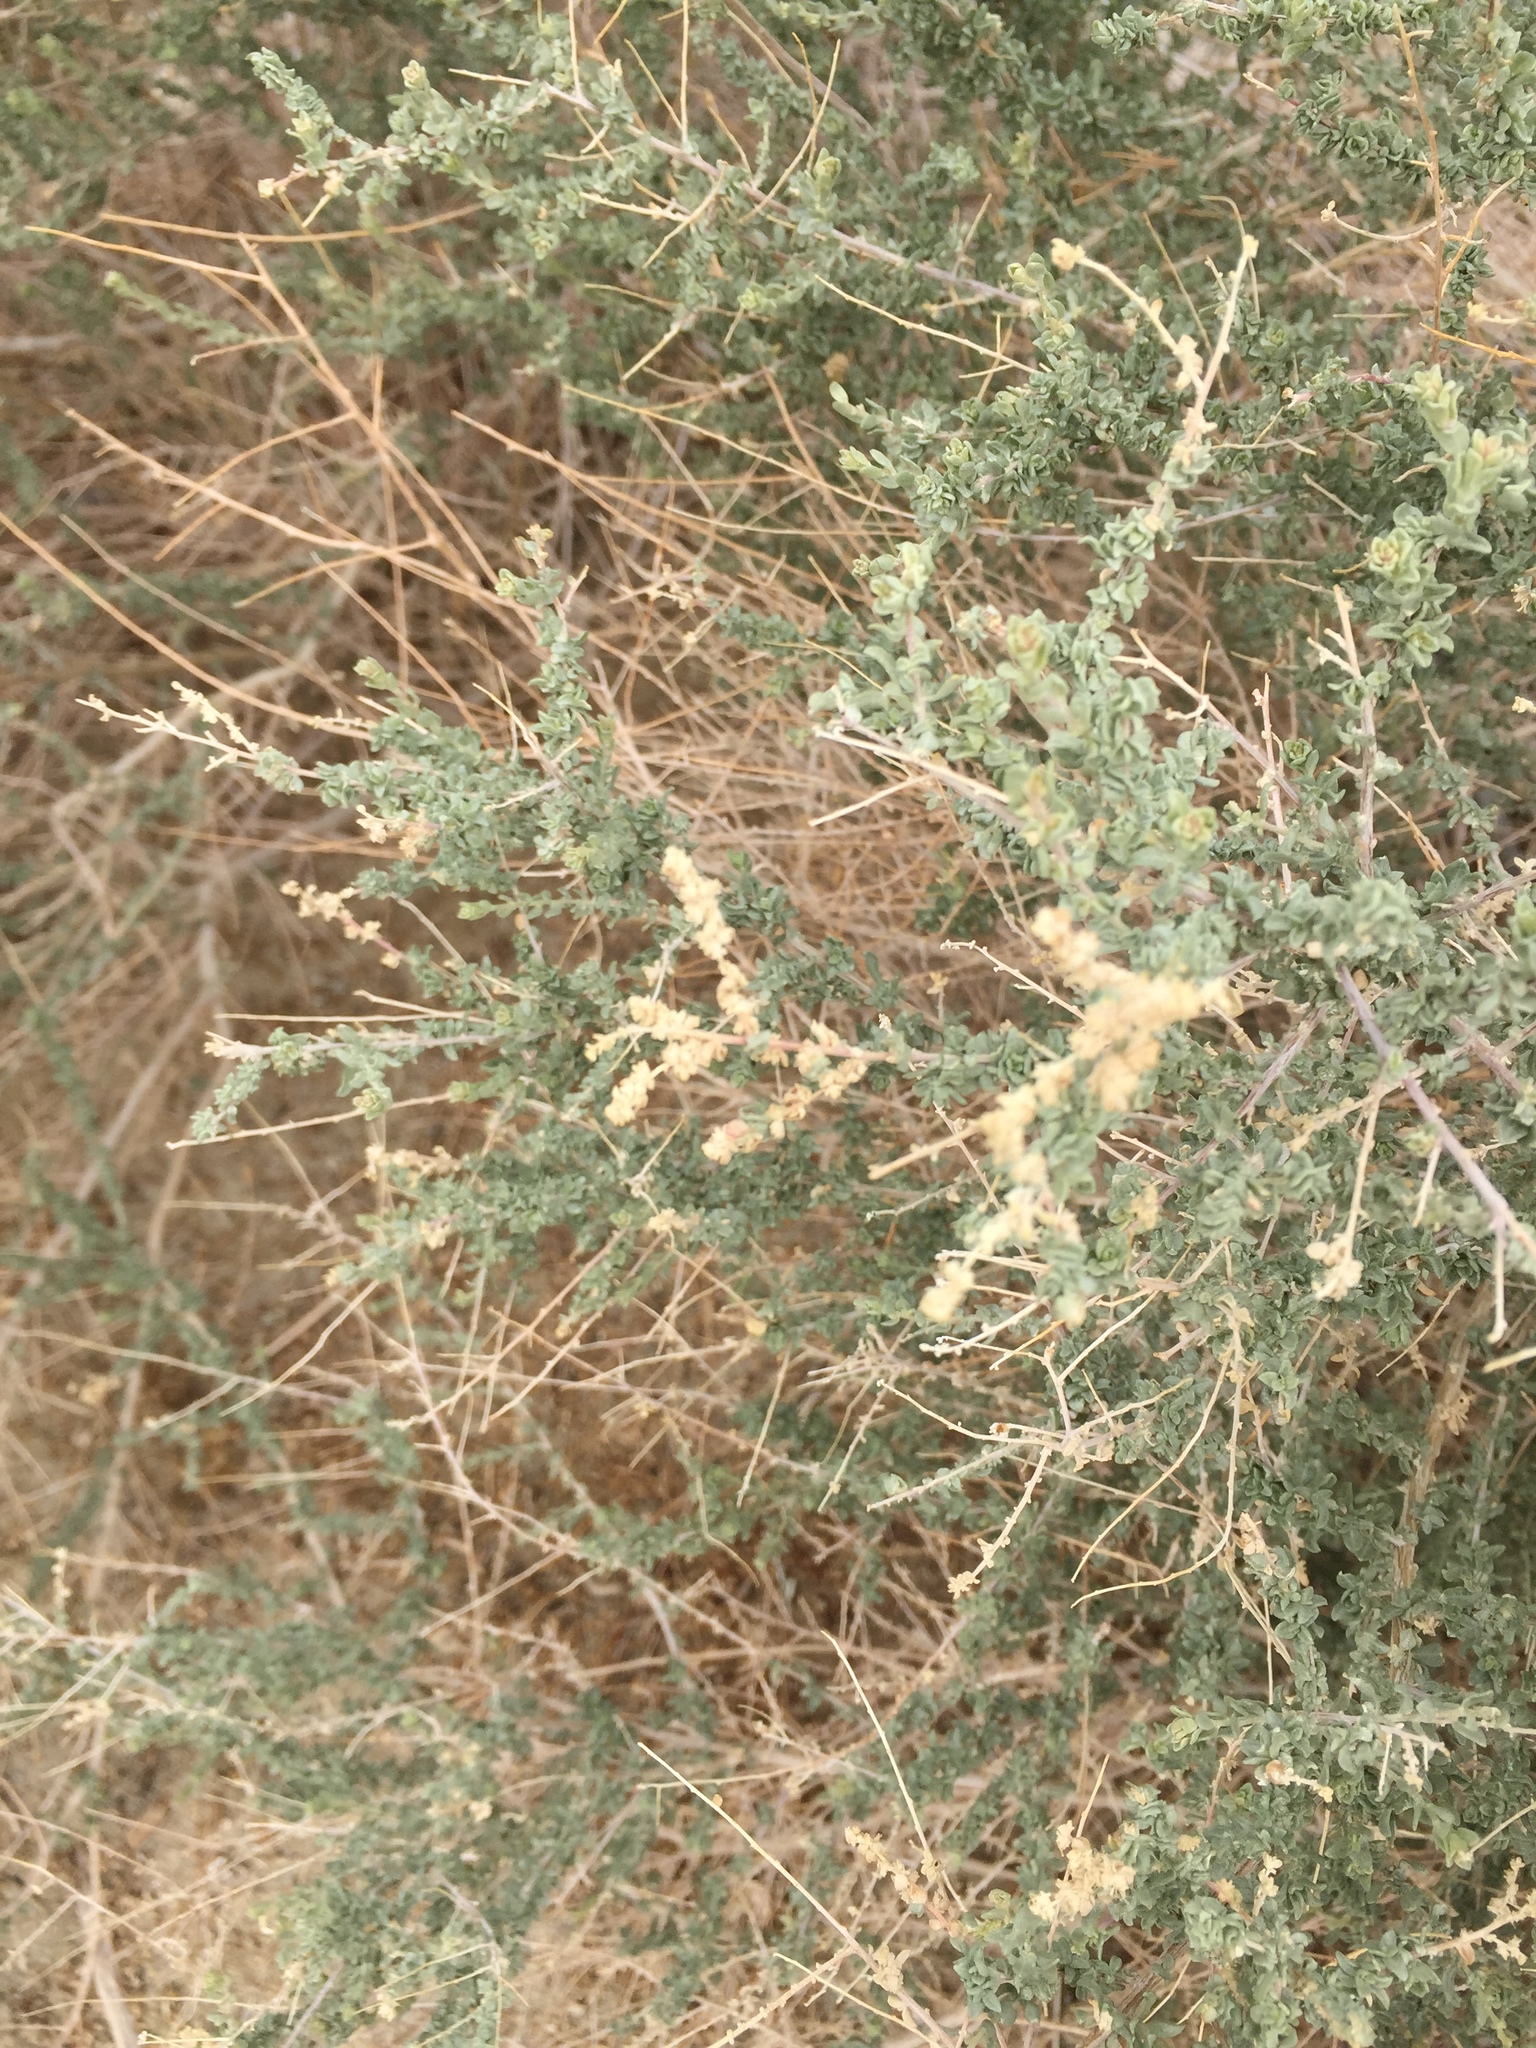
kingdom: Plantae
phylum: Tracheophyta
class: Magnoliopsida
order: Caryophyllales
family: Amaranthaceae
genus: Atriplex
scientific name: Atriplex polycarpa
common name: Desert saltbush
